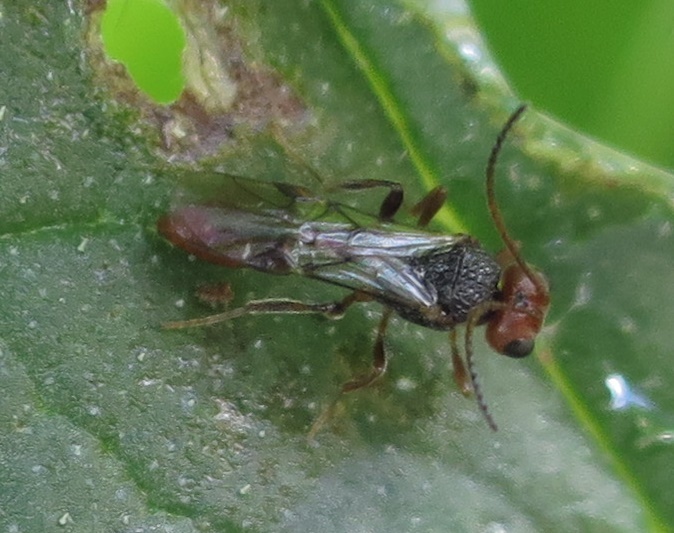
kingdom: Animalia
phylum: Arthropoda
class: Insecta
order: Hymenoptera
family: Braconidae
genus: Aridelus
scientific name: Aridelus rufotestaceus
